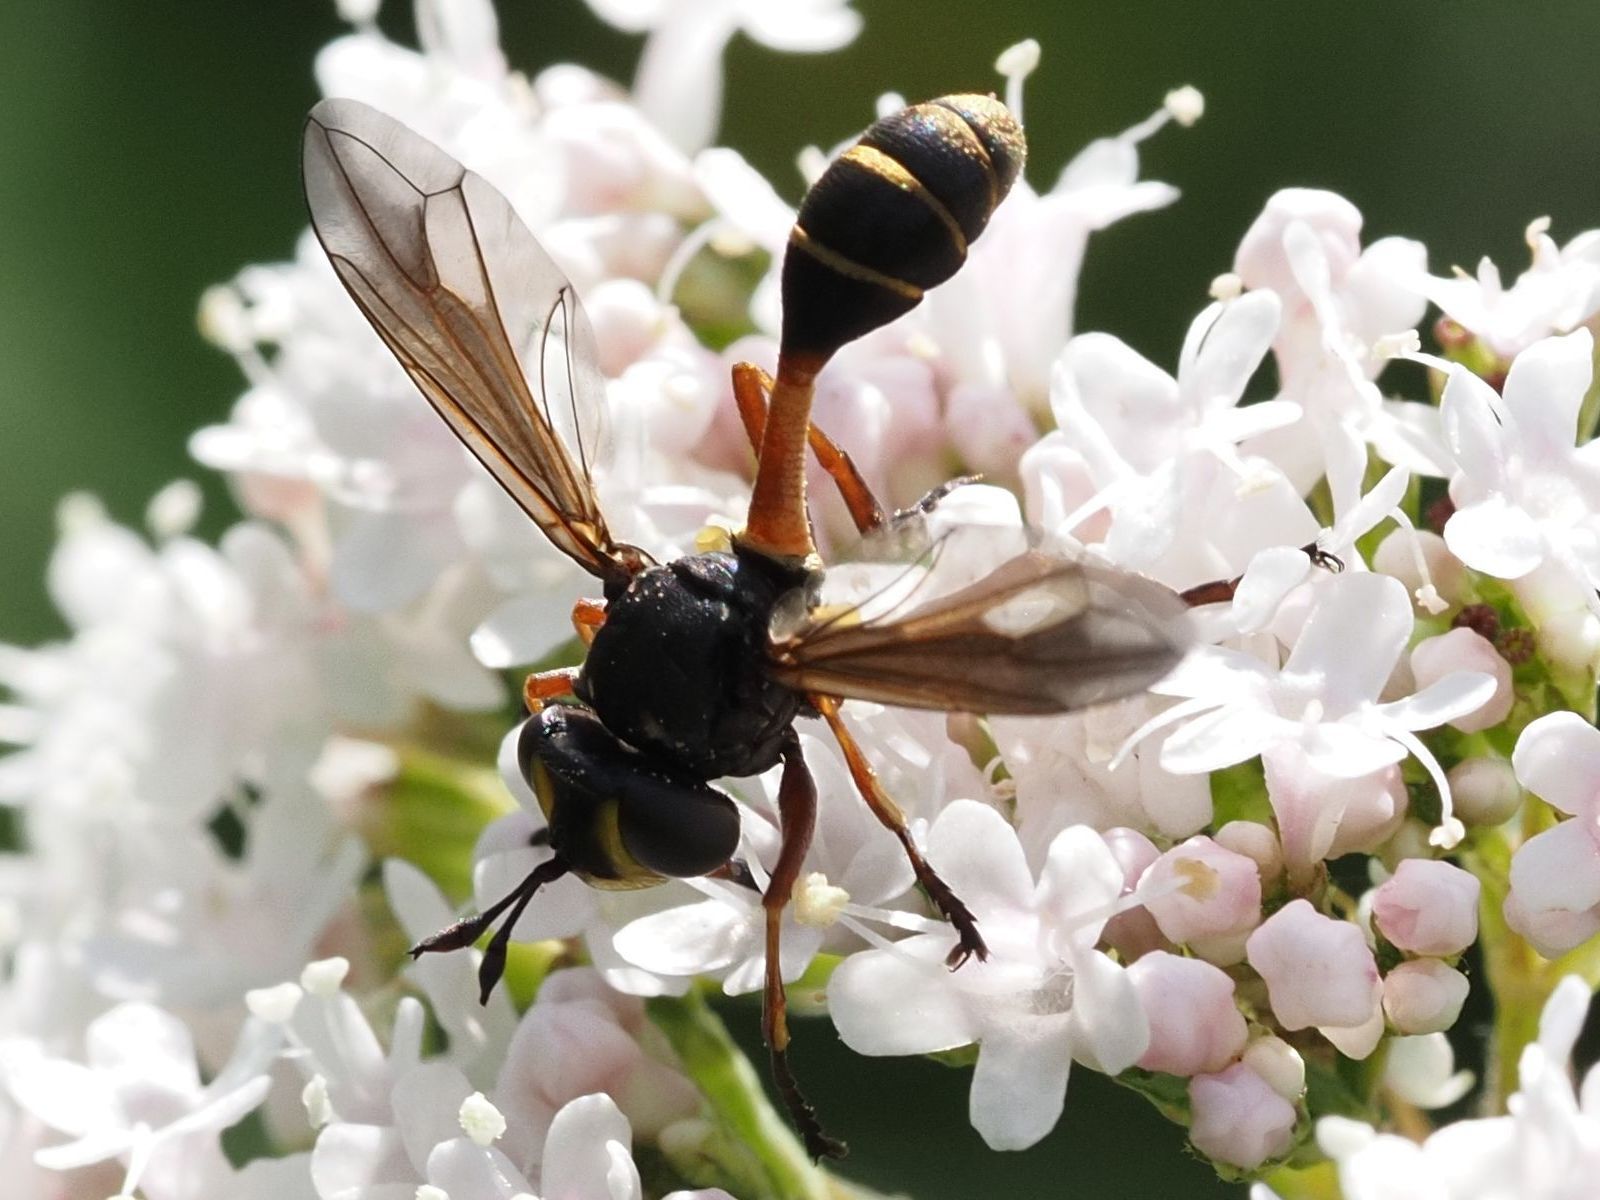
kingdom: Animalia
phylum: Arthropoda
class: Insecta
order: Diptera
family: Conopidae
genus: Physocephala
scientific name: Physocephala rufipes
